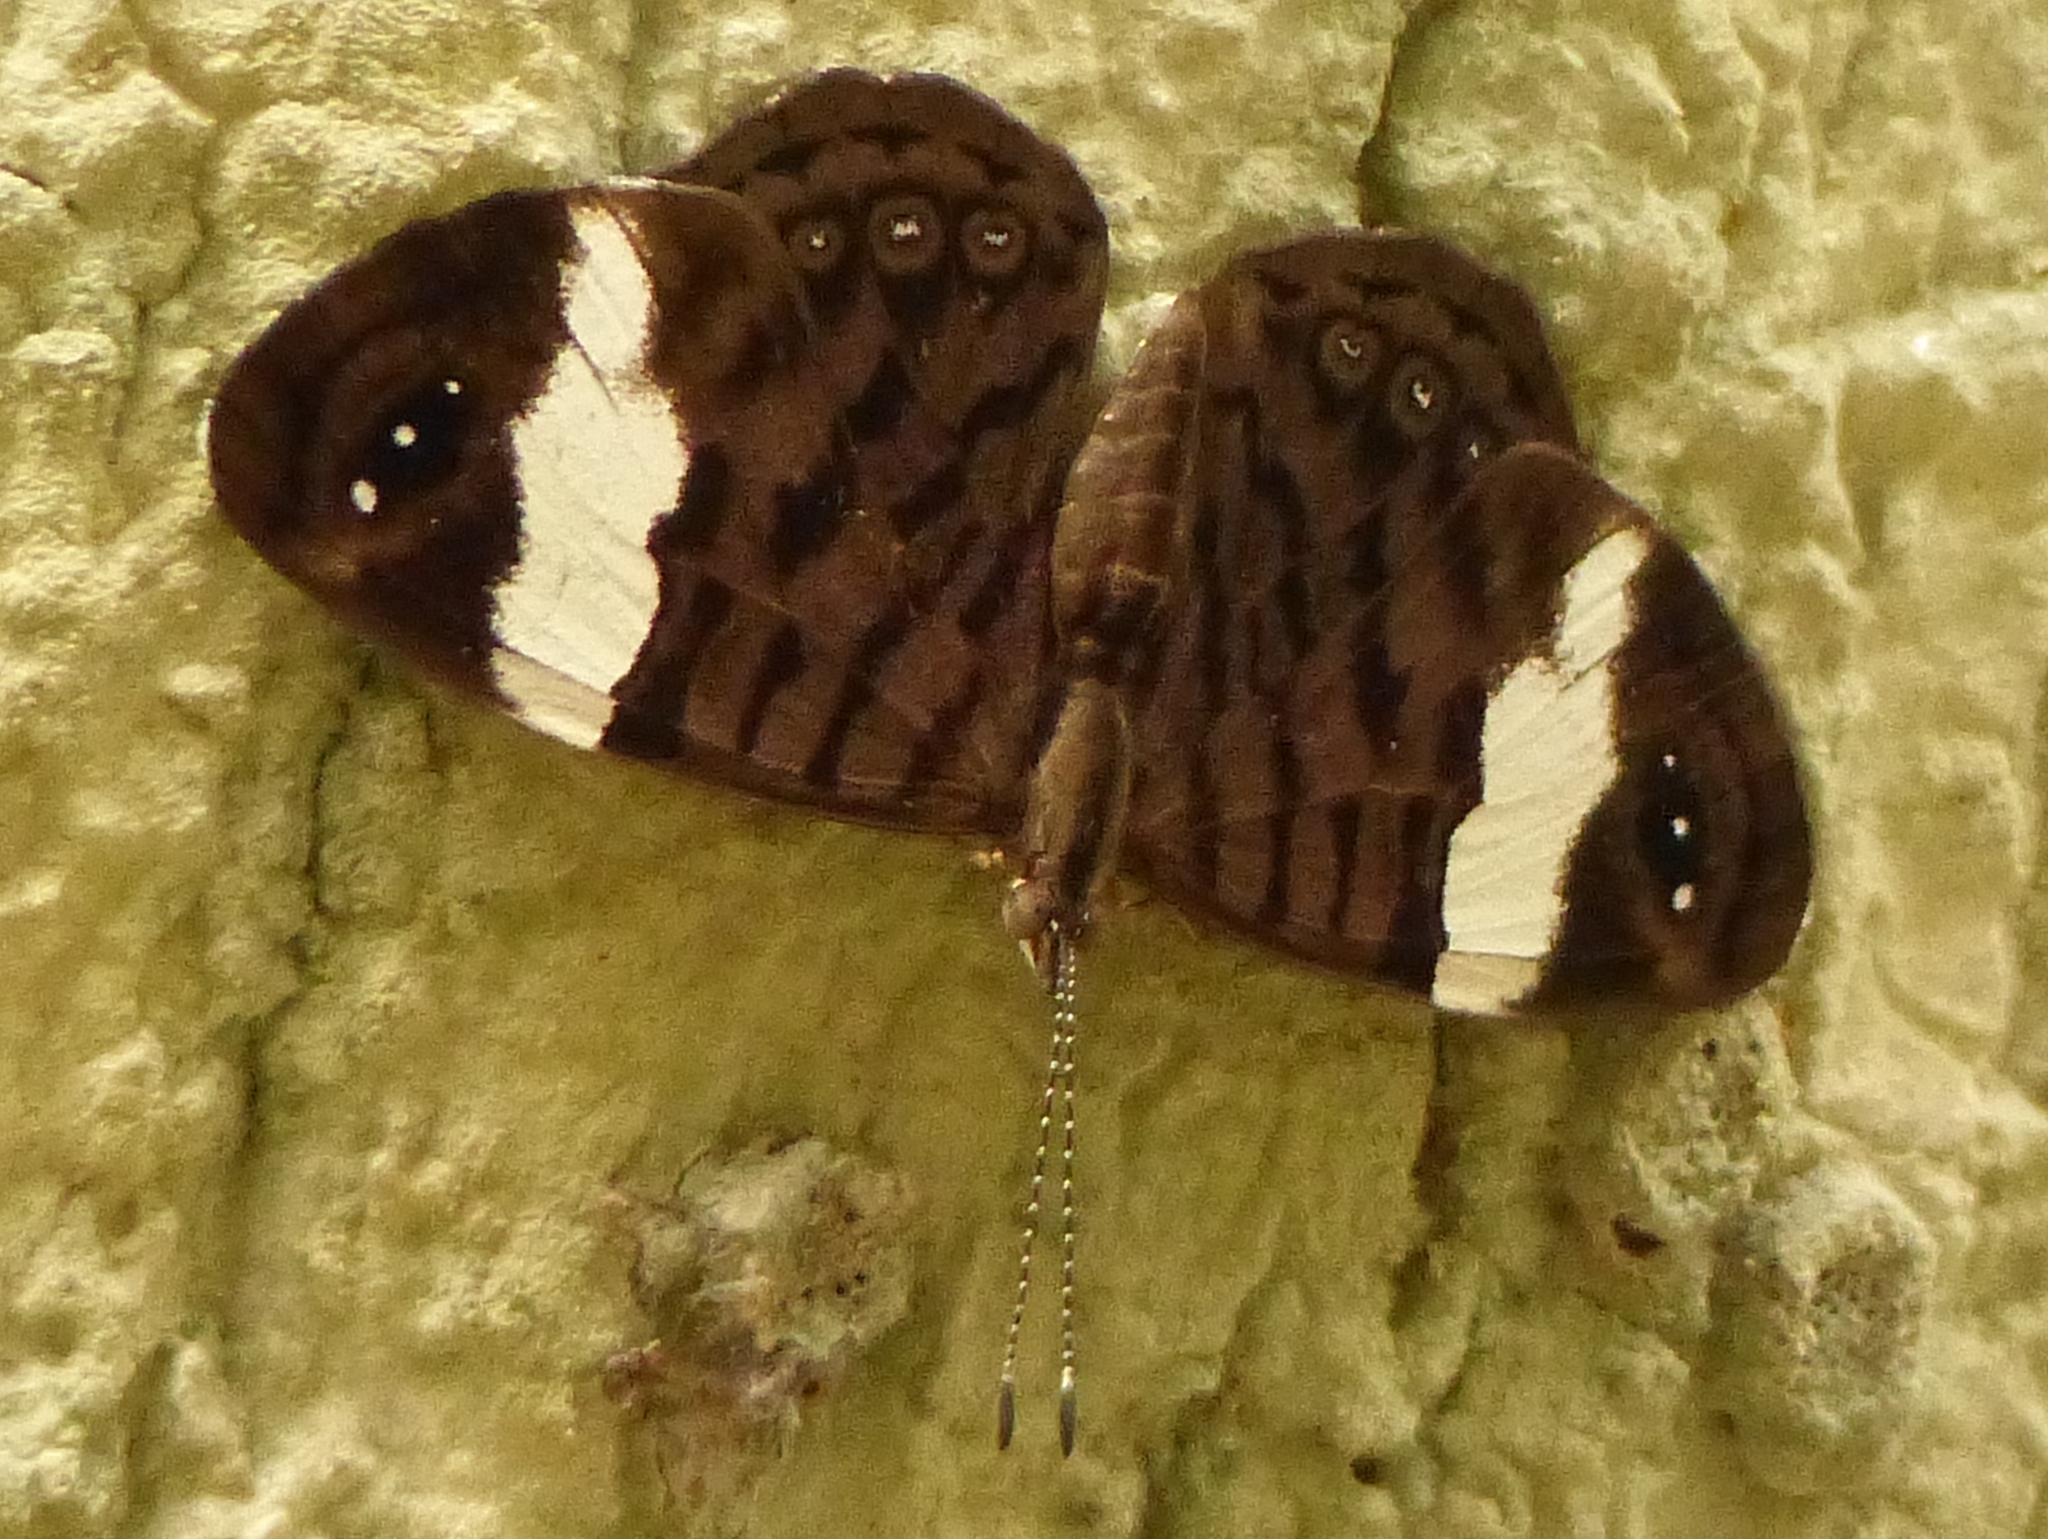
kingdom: Animalia
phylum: Arthropoda
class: Insecta
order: Lepidoptera
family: Nymphalidae
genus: Ectima
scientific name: Ectima thecla
